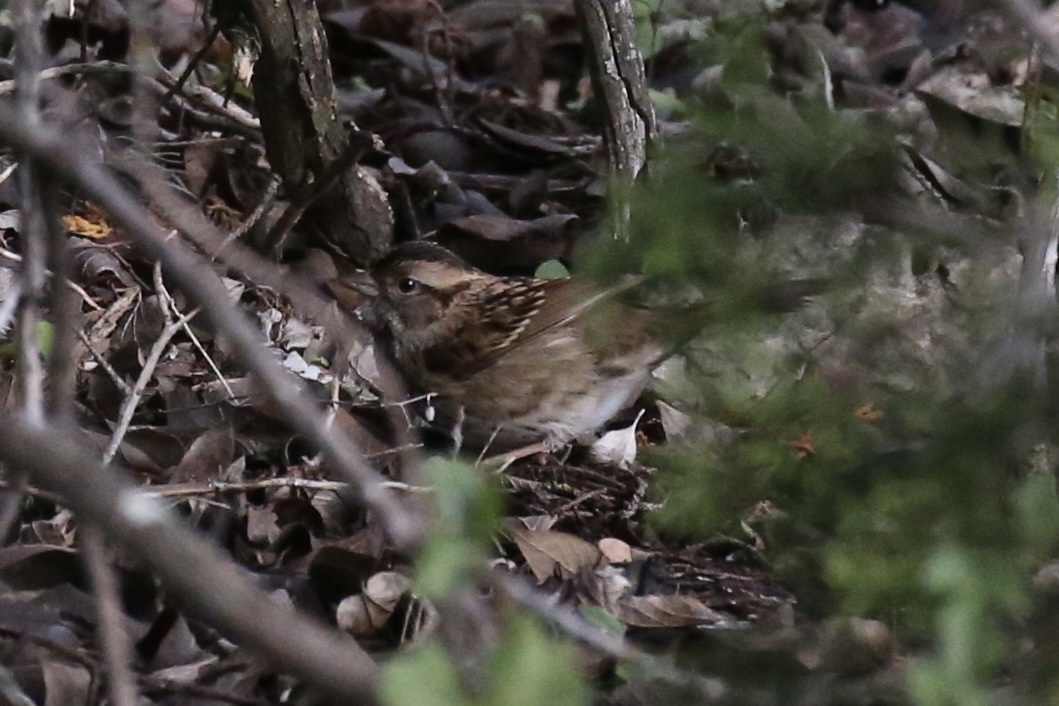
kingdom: Animalia
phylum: Chordata
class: Aves
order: Passeriformes
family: Passerellidae
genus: Zonotrichia
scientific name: Zonotrichia albicollis
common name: White-throated sparrow
